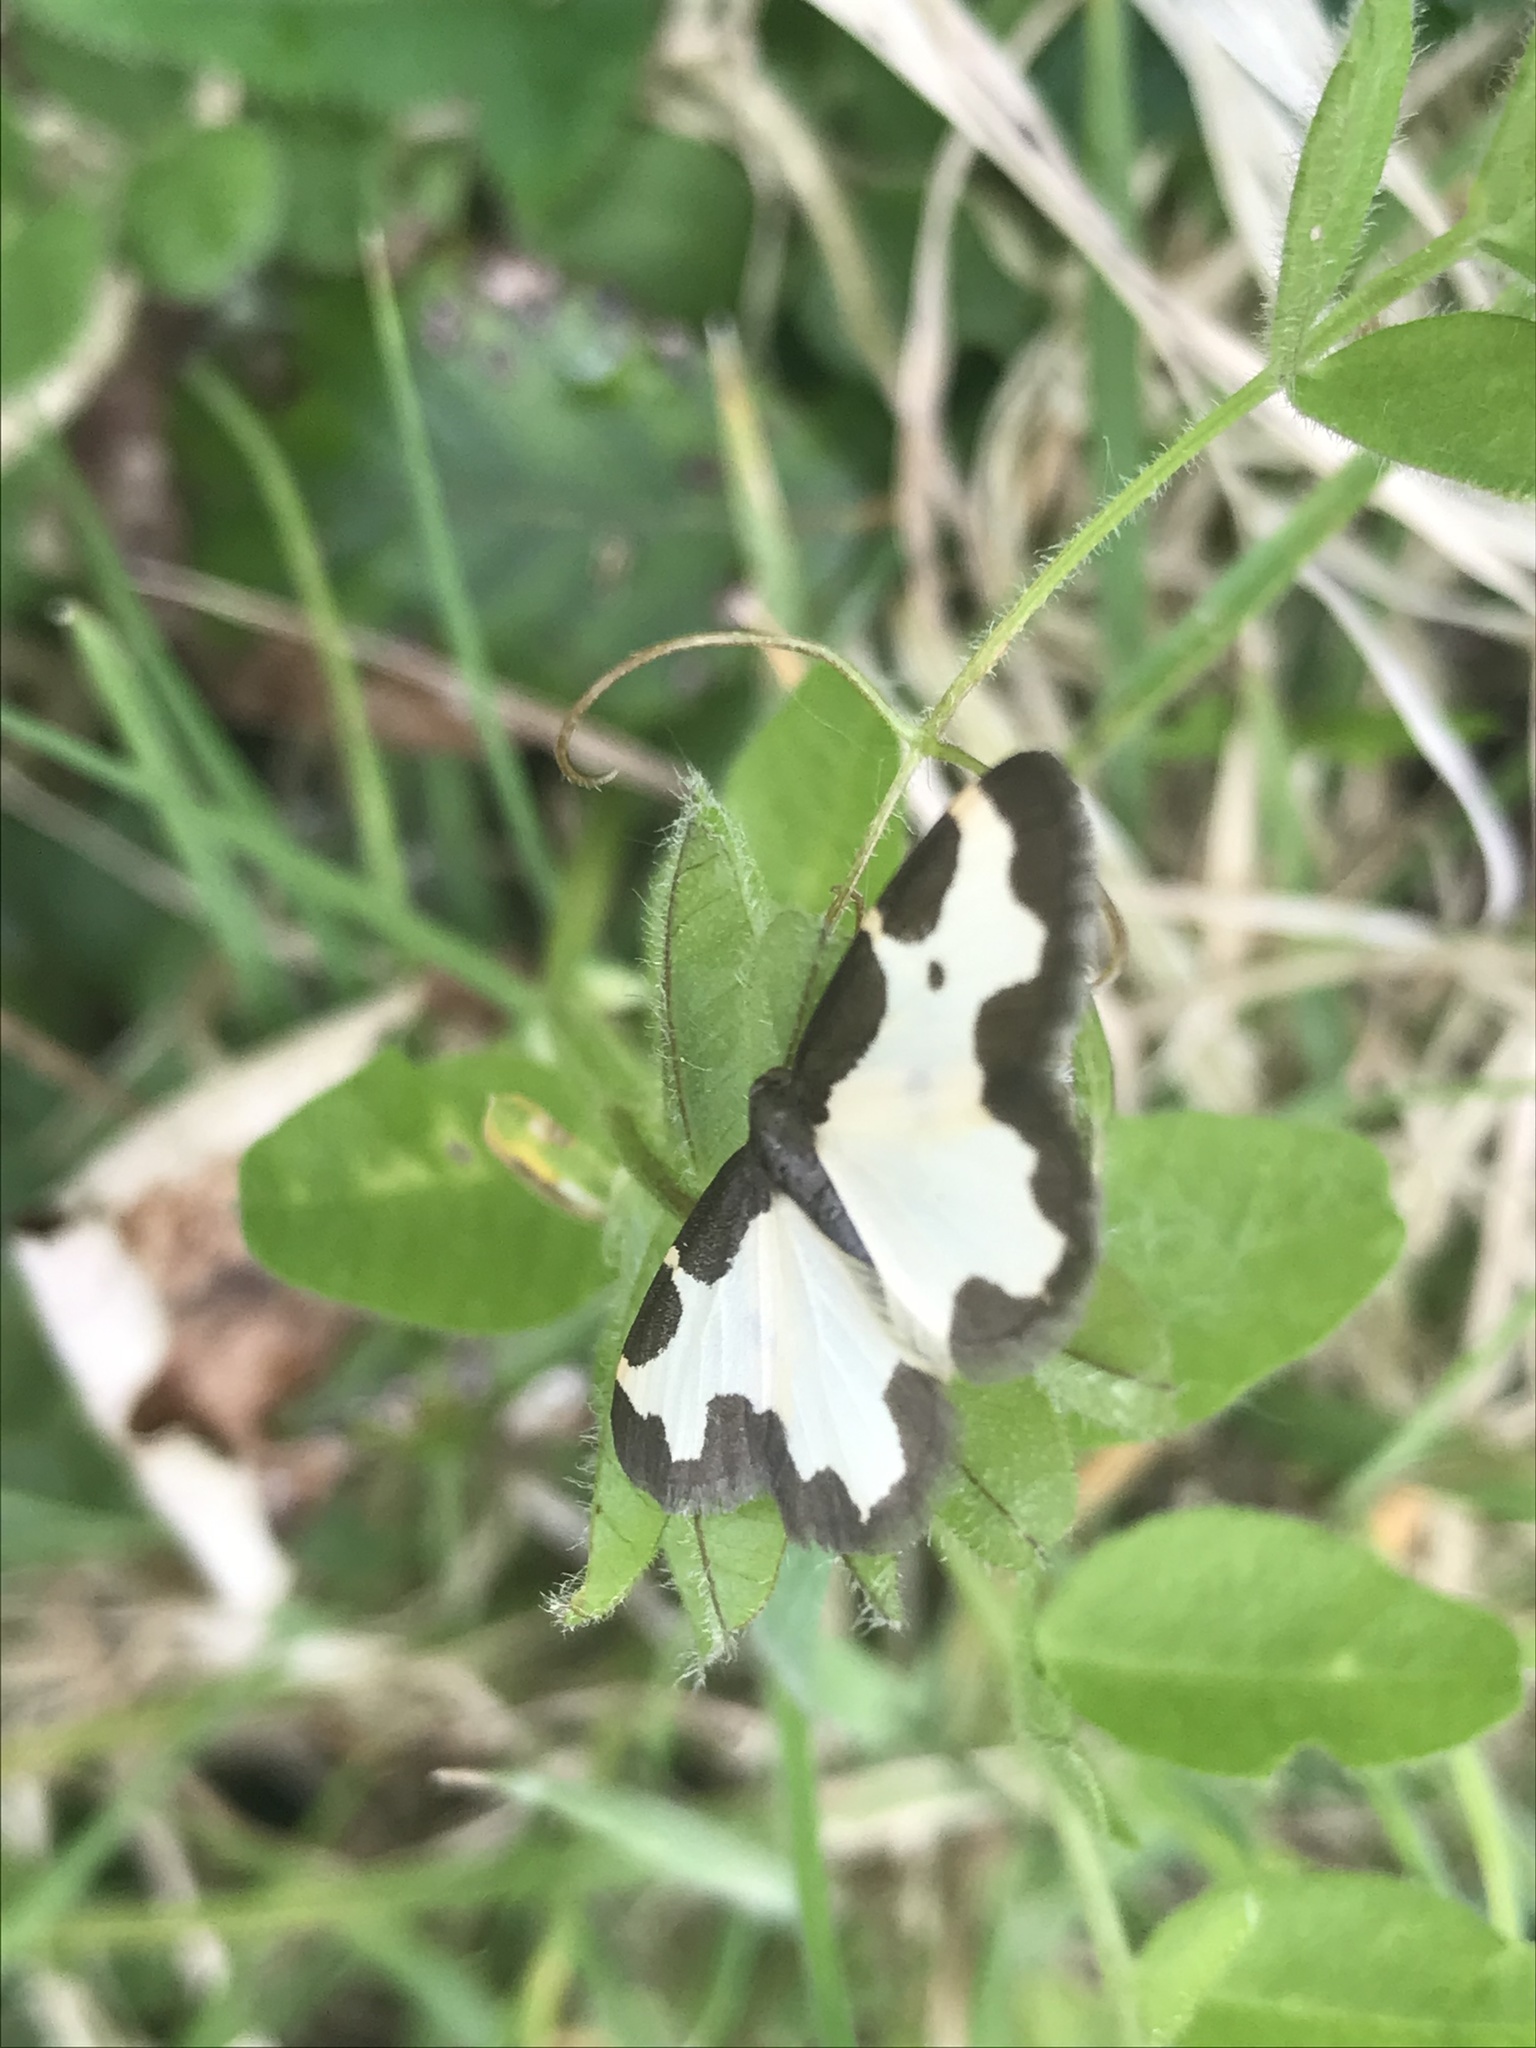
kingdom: Animalia
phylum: Arthropoda
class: Insecta
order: Lepidoptera
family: Geometridae
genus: Lomaspilis
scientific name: Lomaspilis marginata
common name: Clouded border
